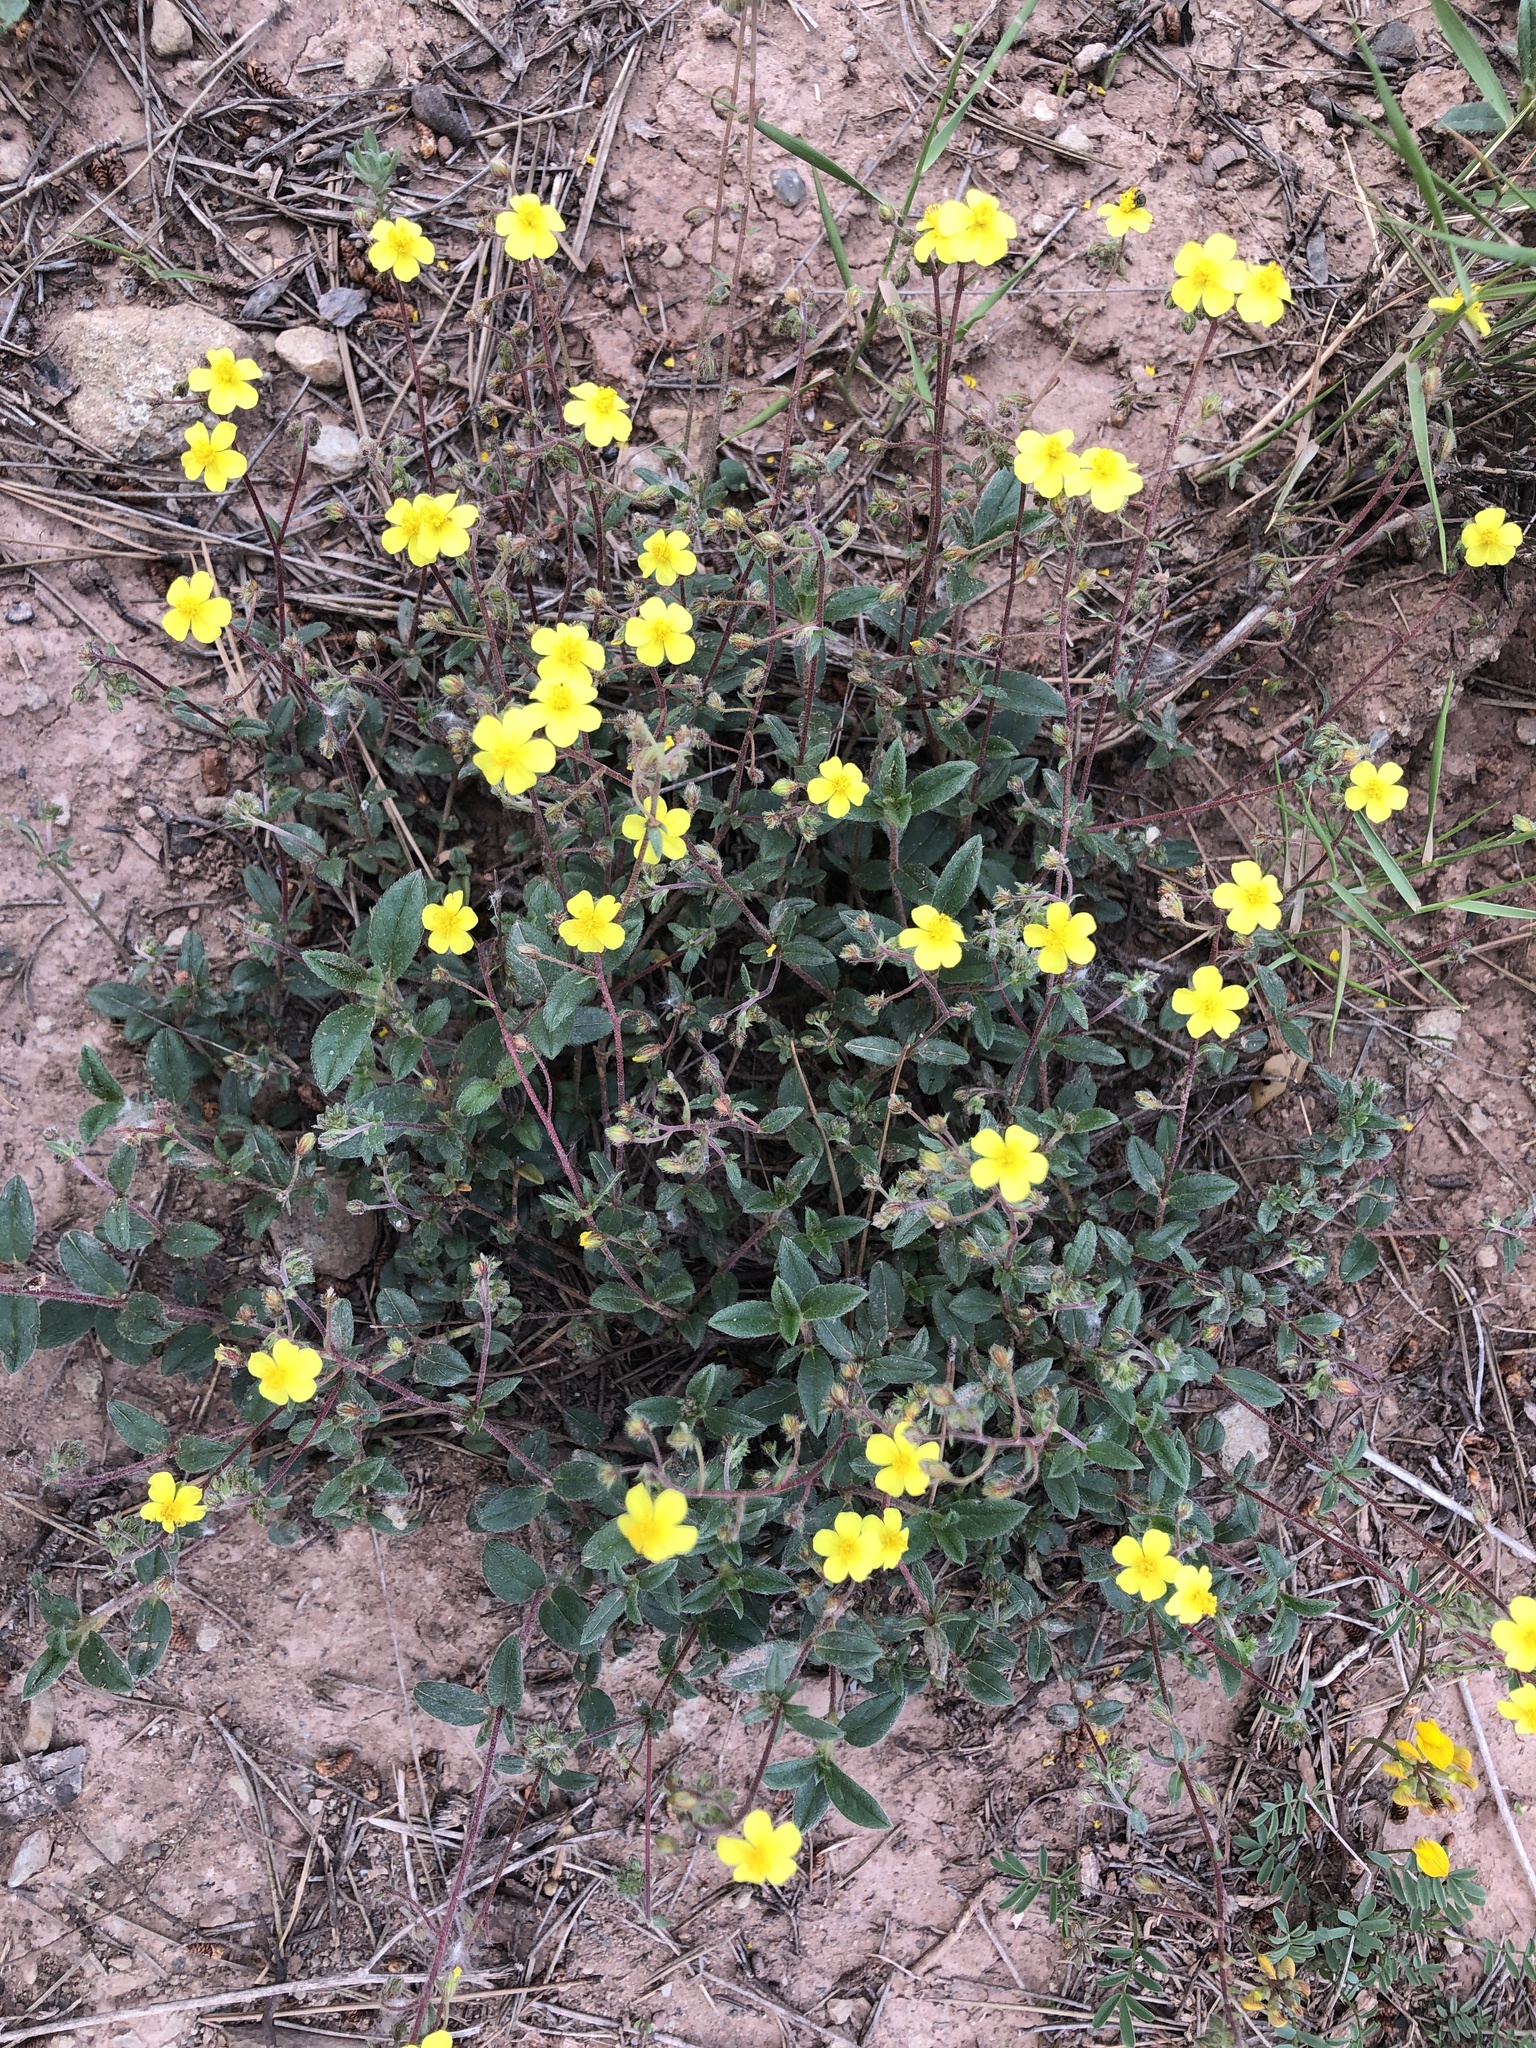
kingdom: Plantae
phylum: Tracheophyta
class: Magnoliopsida
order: Malvales
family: Cistaceae
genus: Helianthemum
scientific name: Helianthemum oelandicum
